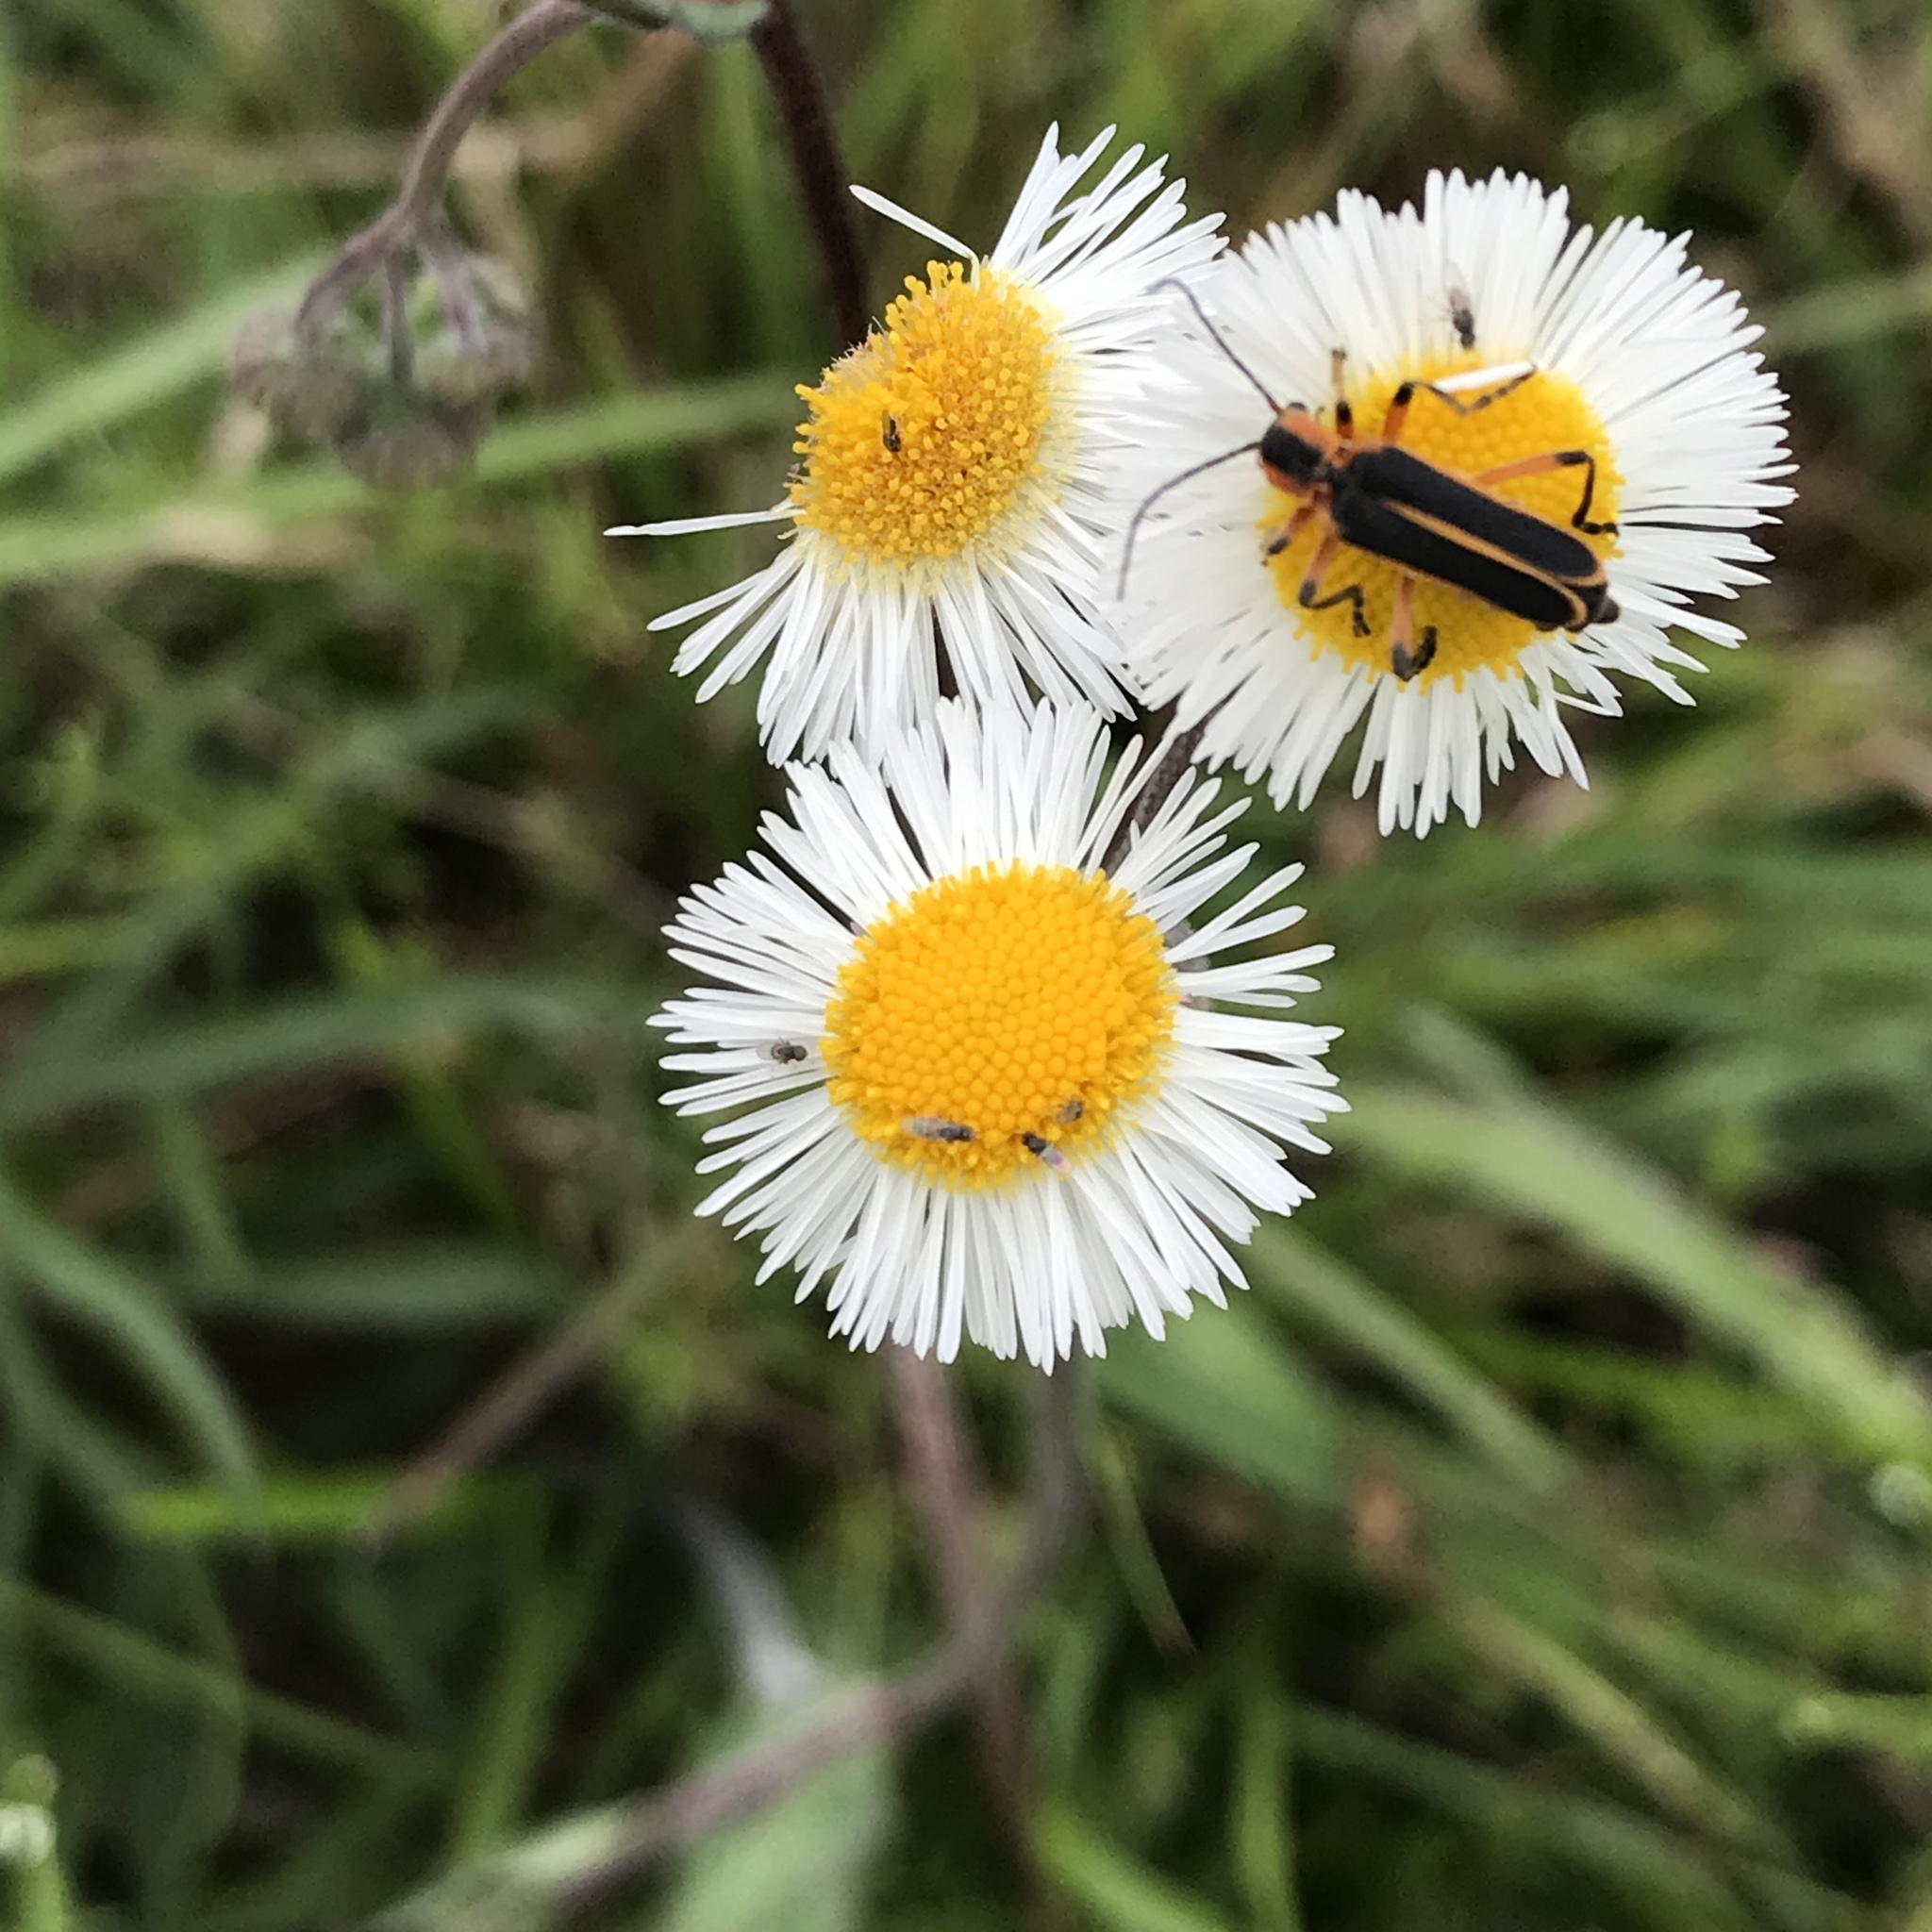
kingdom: Animalia
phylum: Arthropoda
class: Insecta
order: Coleoptera
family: Cantharidae
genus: Chauliognathus
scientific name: Chauliognathus marginatus
